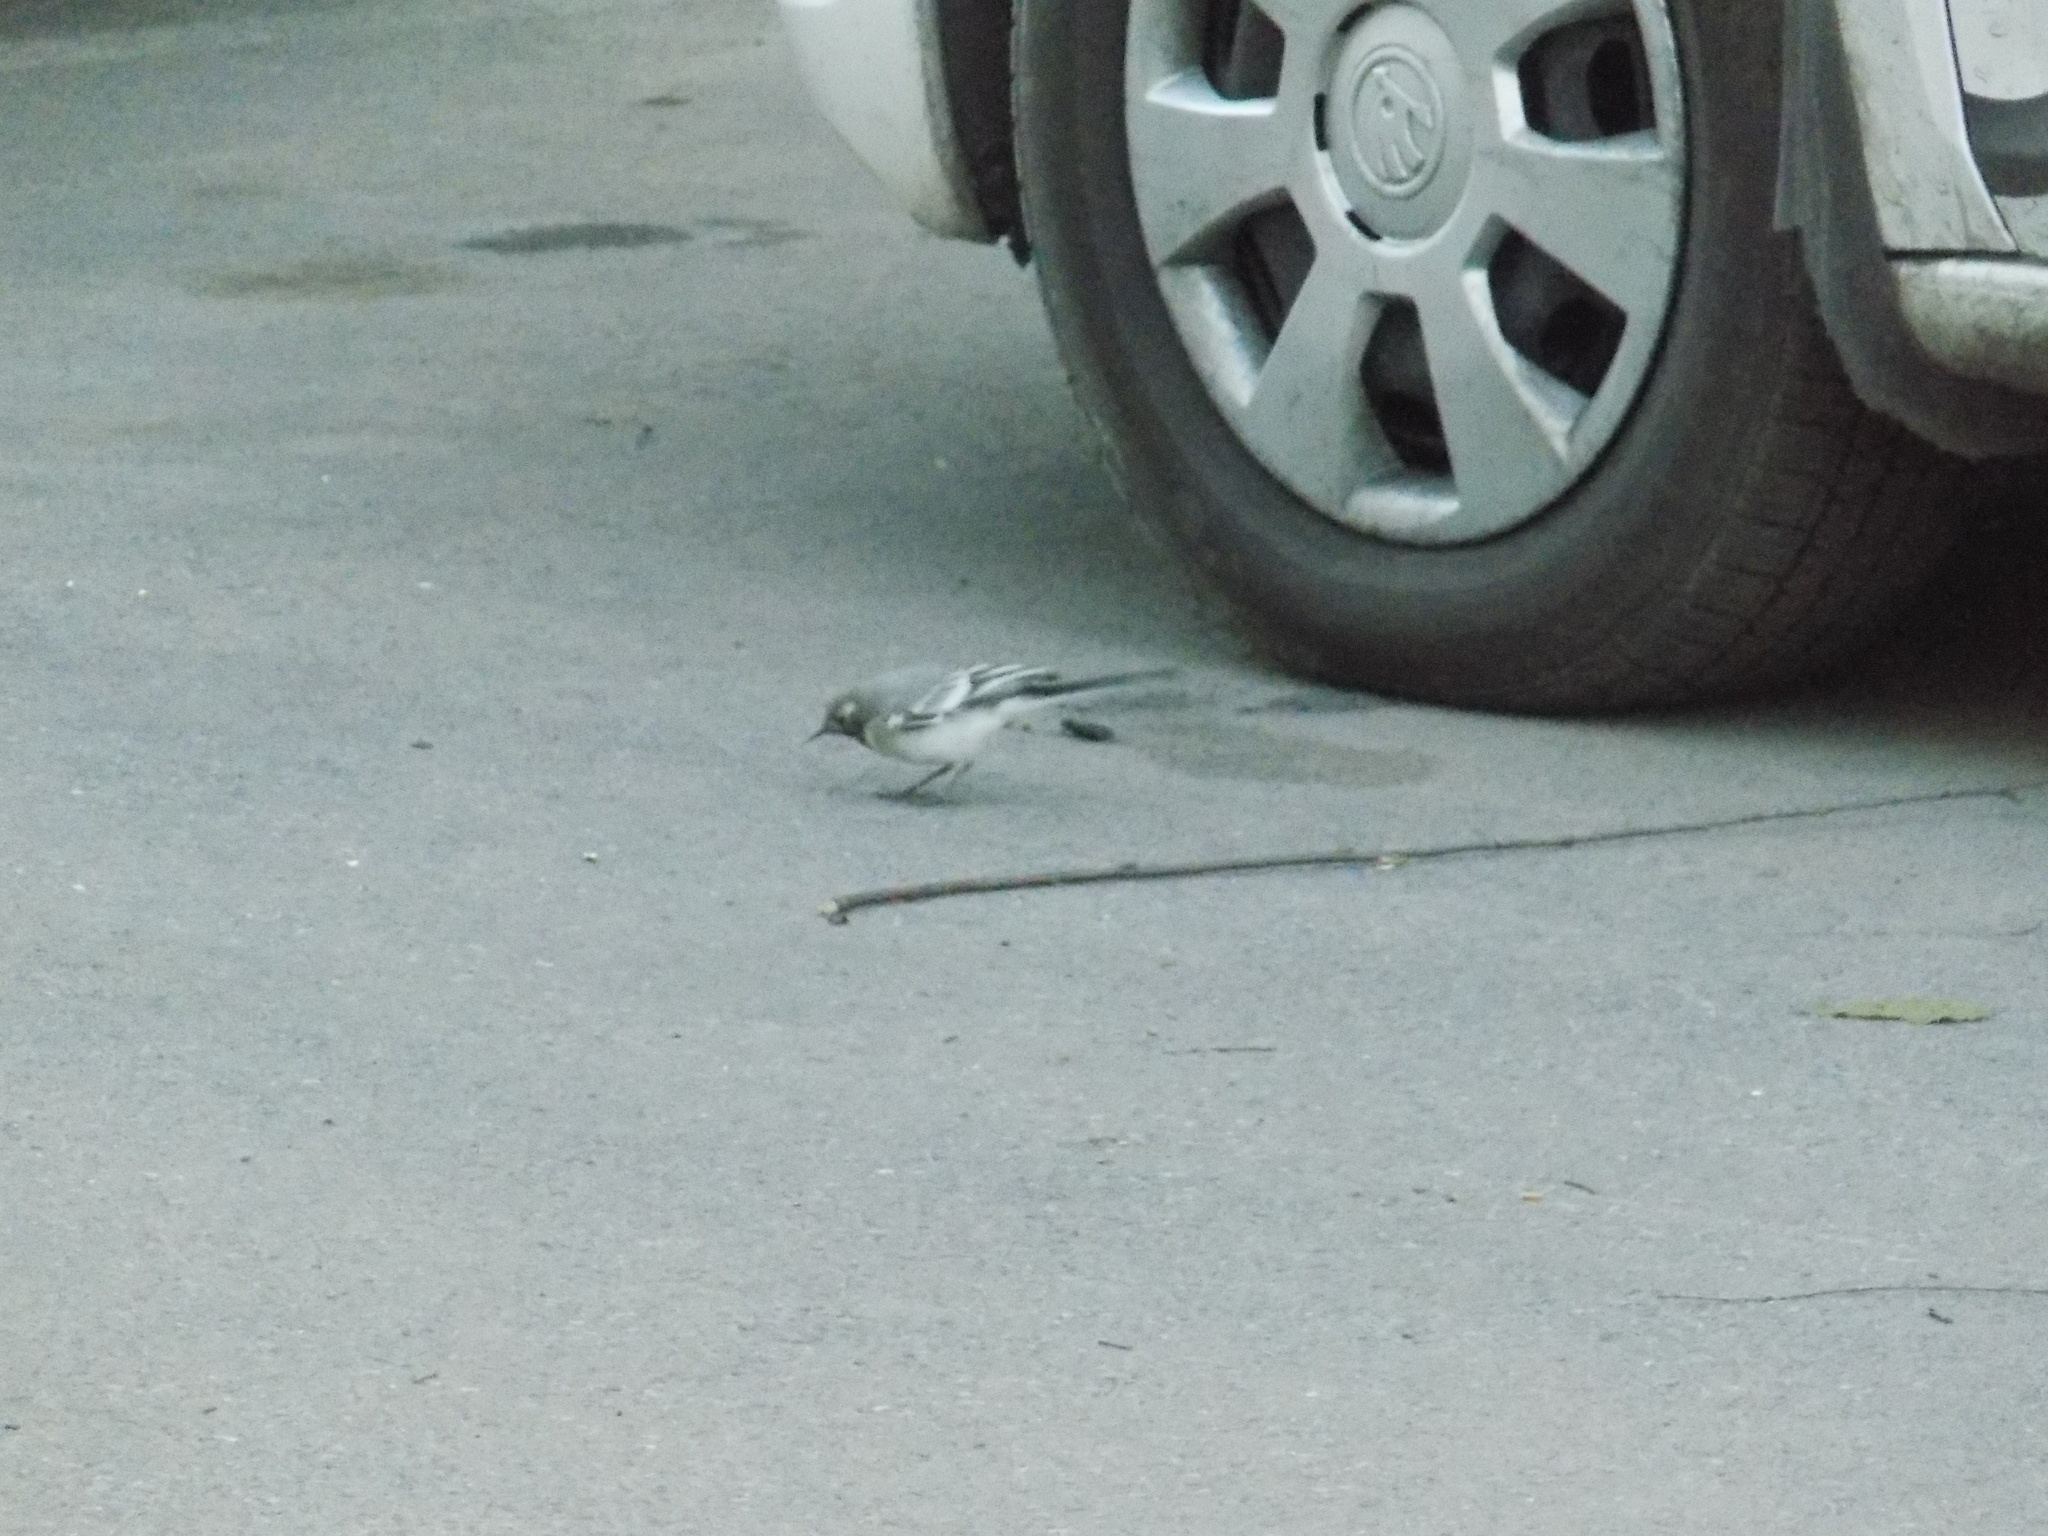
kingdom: Animalia
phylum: Chordata
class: Aves
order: Passeriformes
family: Motacillidae
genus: Motacilla
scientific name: Motacilla alba
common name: White wagtail
